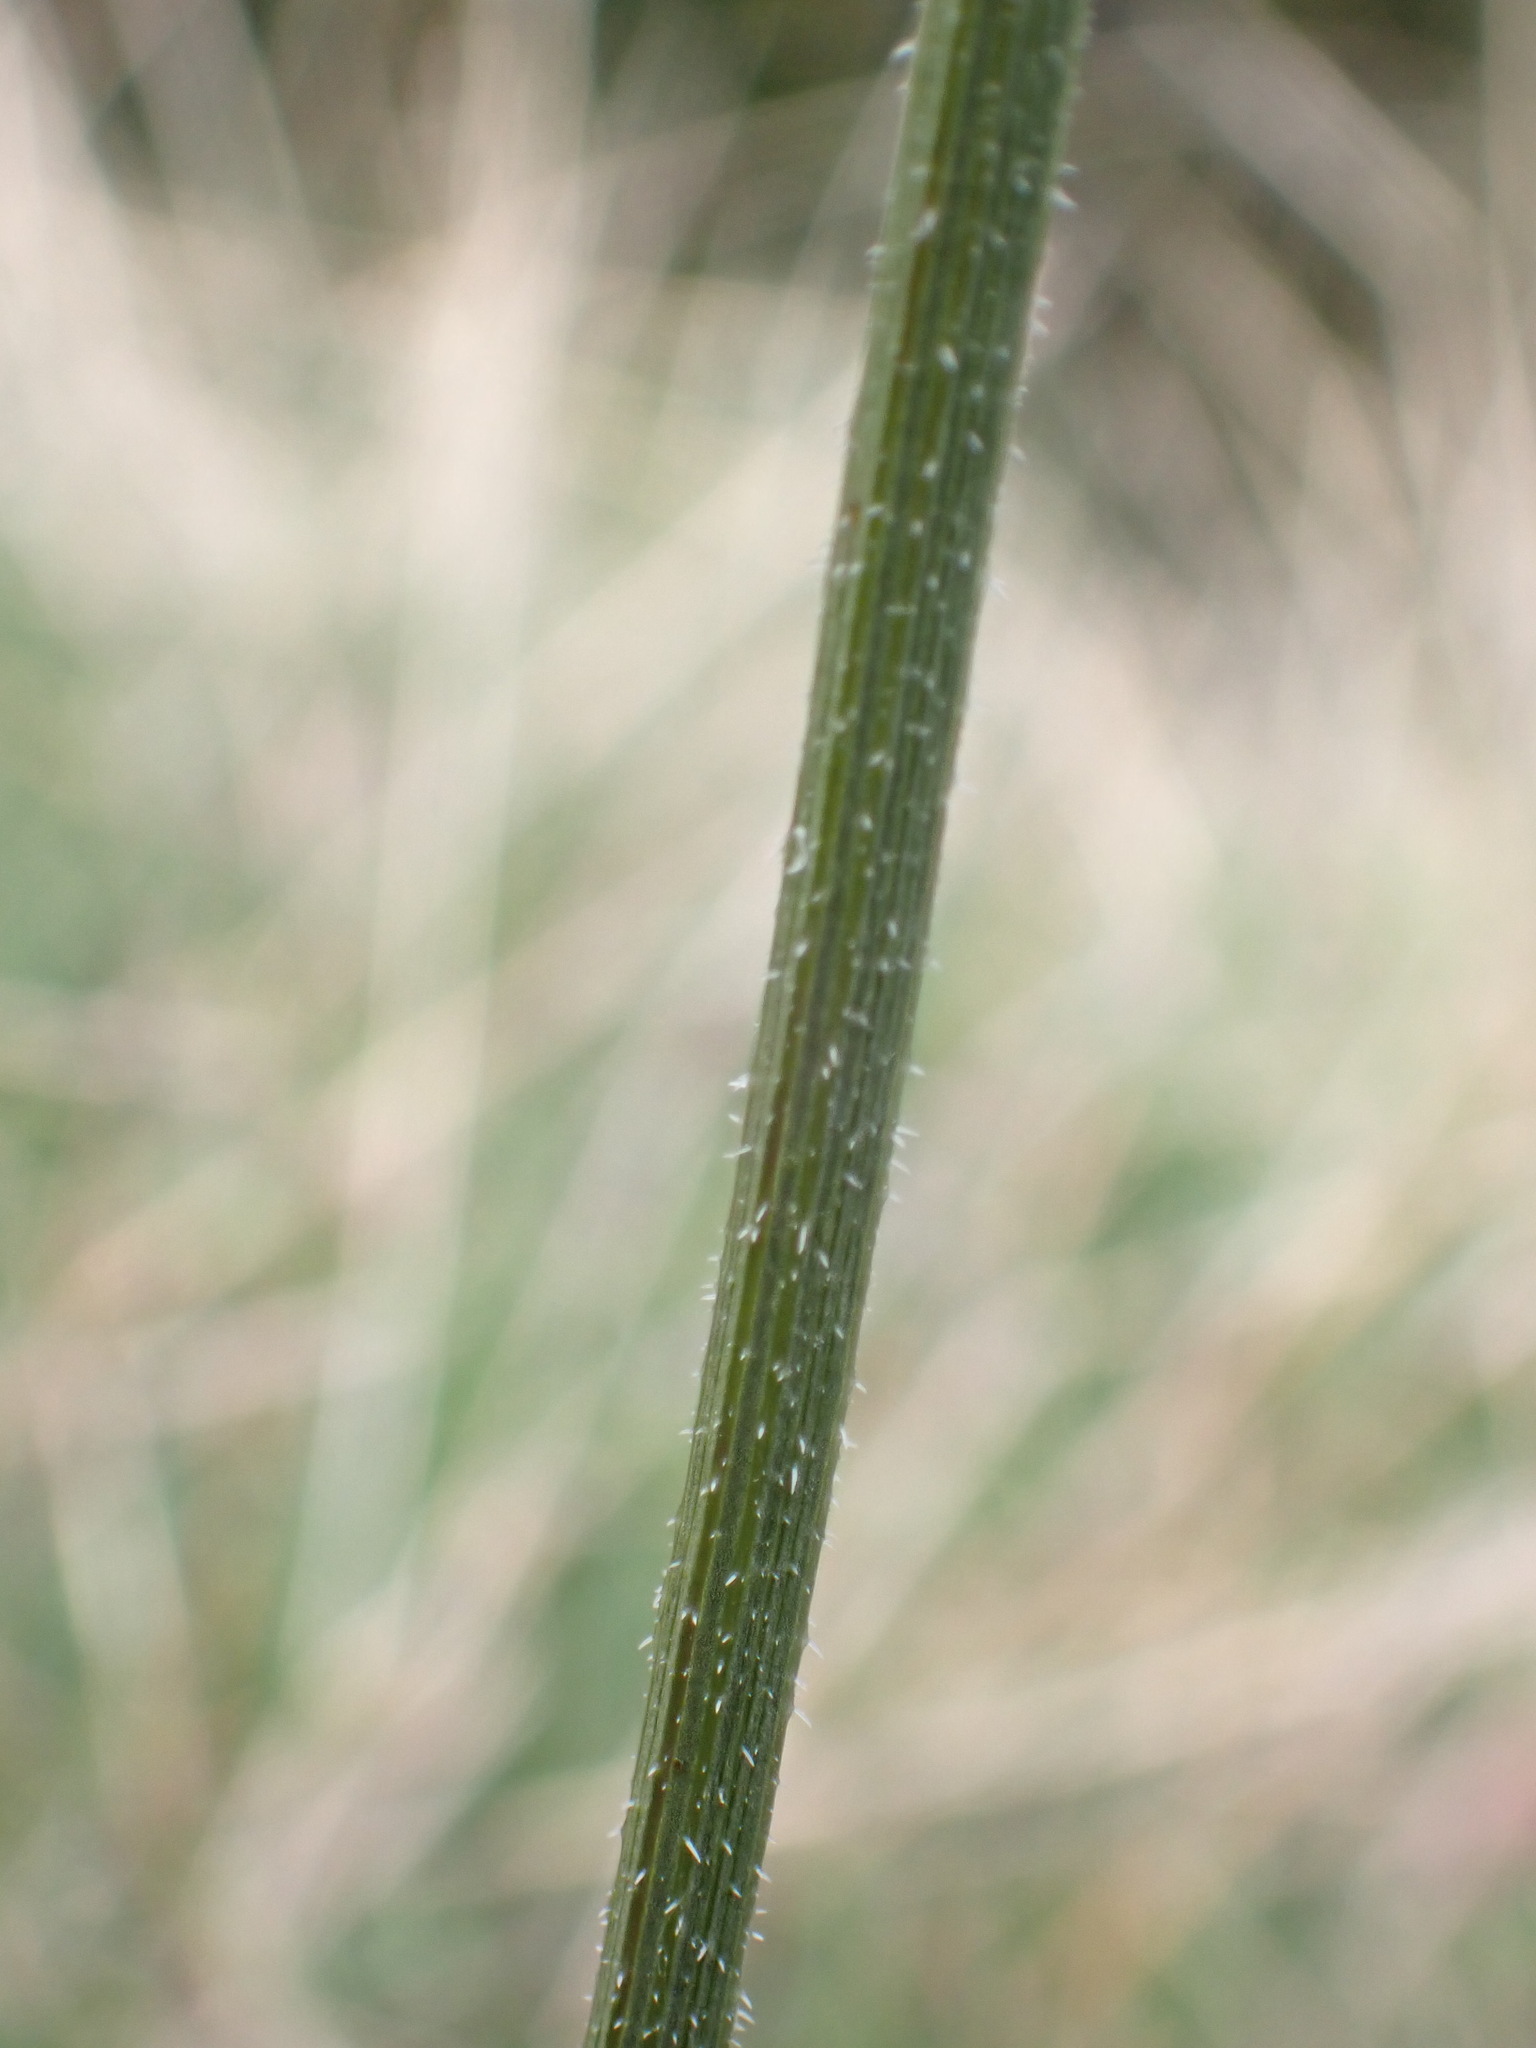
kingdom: Plantae
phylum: Tracheophyta
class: Magnoliopsida
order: Apiales
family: Apiaceae
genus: Daucus
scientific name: Daucus carota
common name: Wild carrot
